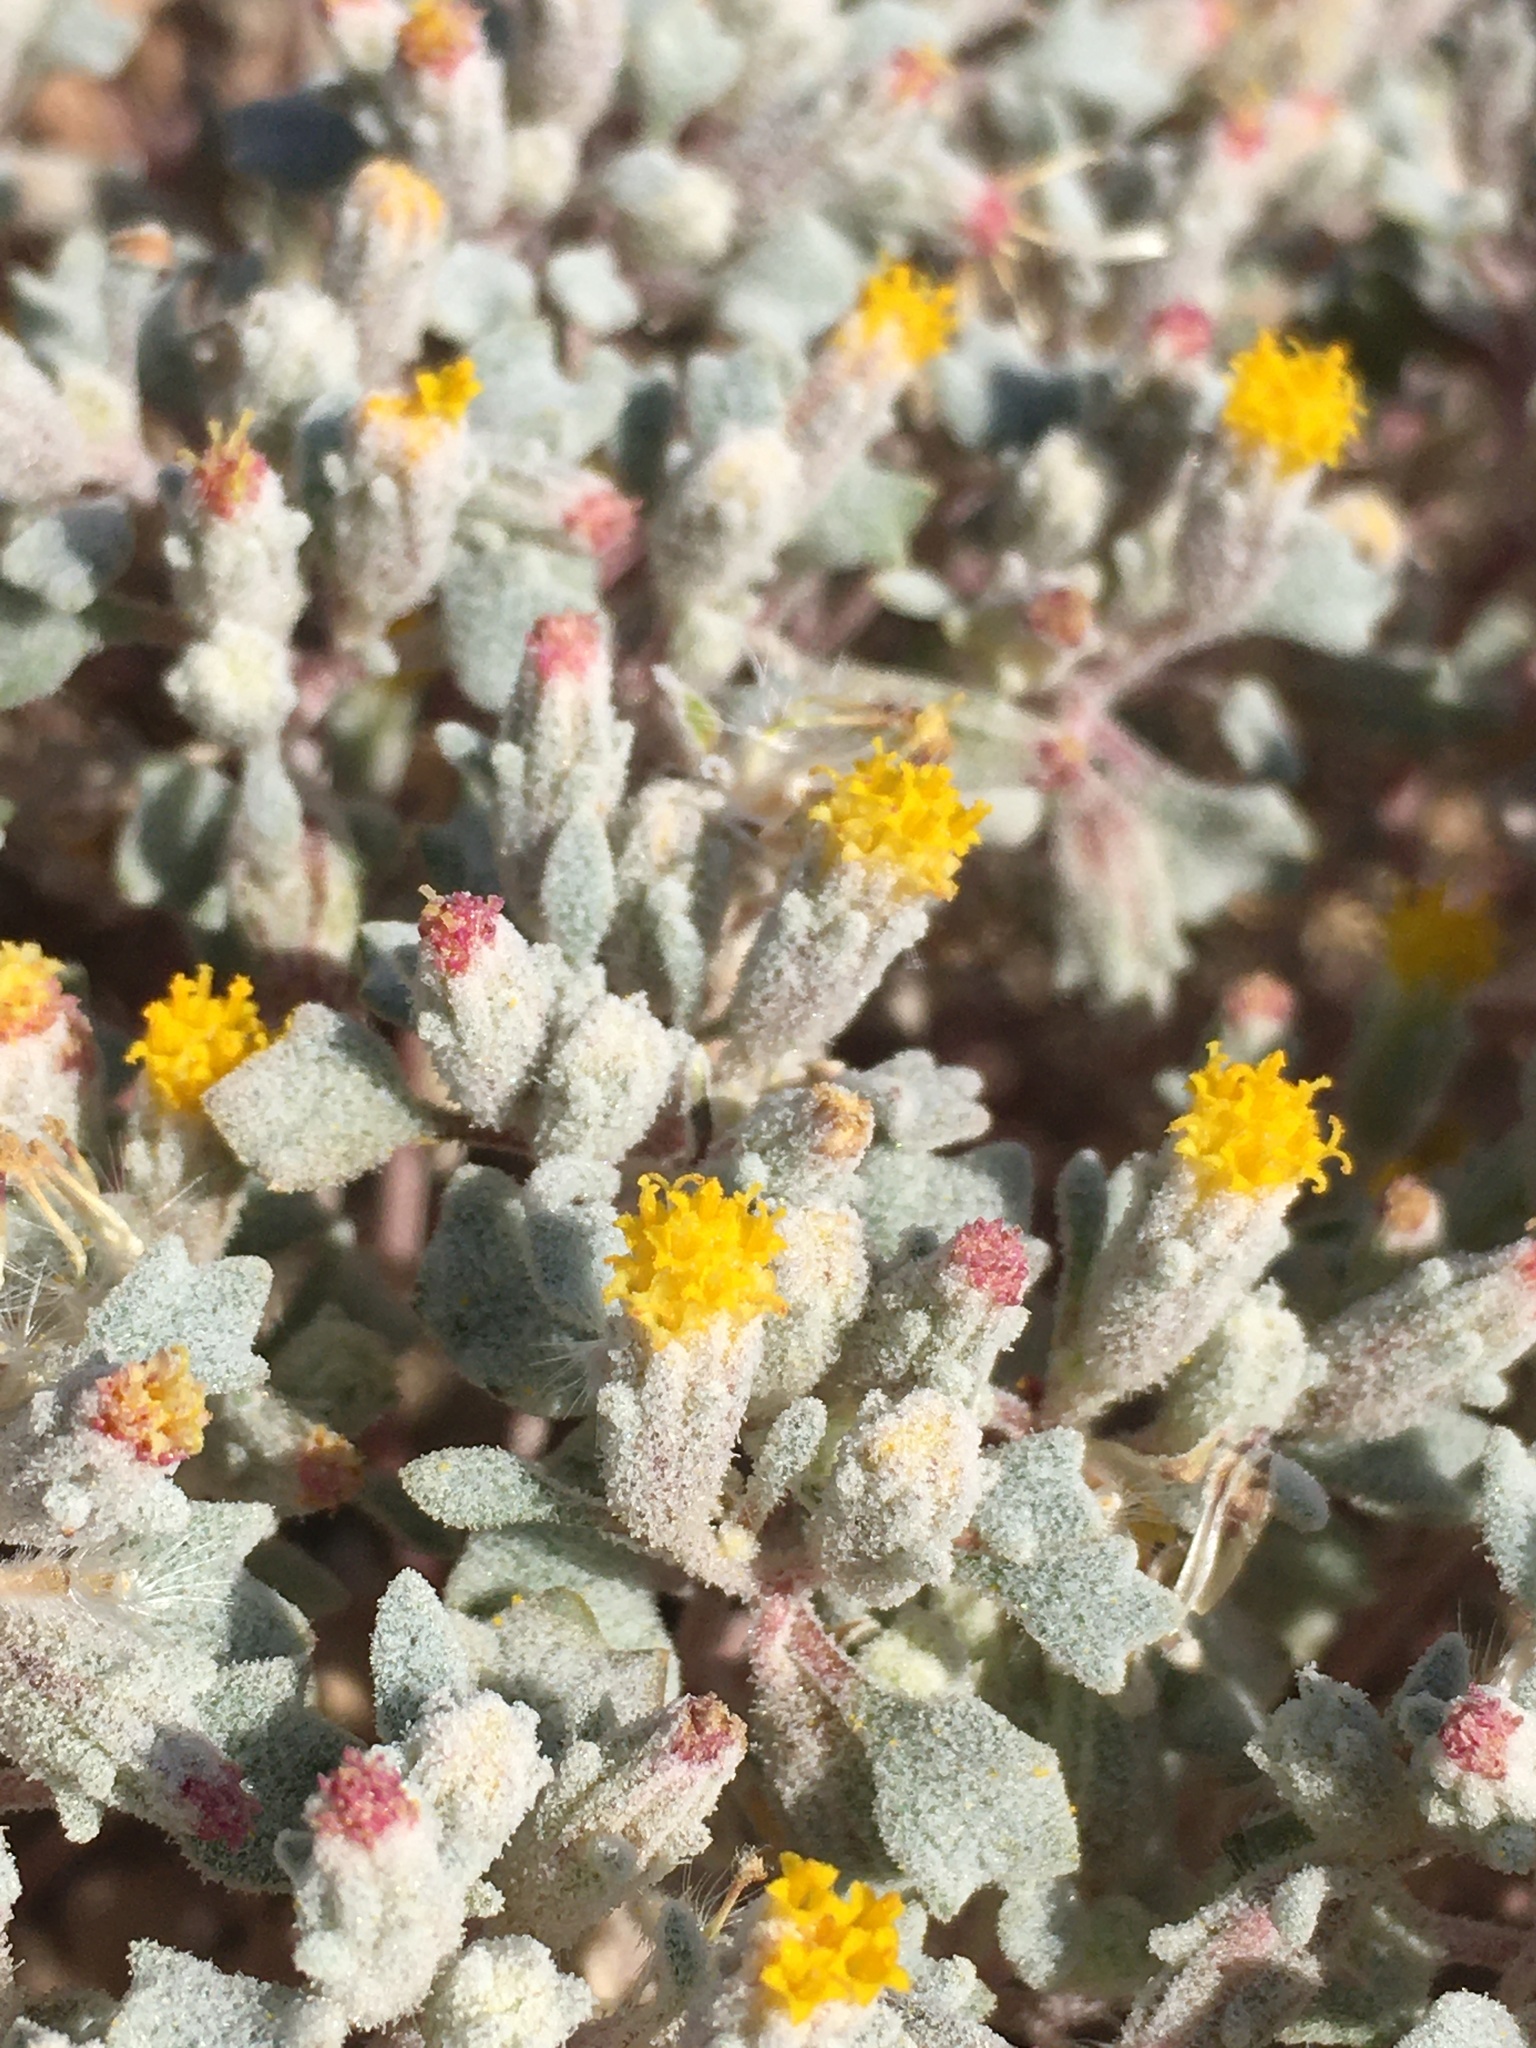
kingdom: Plantae
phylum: Tracheophyta
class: Magnoliopsida
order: Asterales
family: Asteraceae
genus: Psathyrotes
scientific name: Psathyrotes annua
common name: Mealy rosettes
